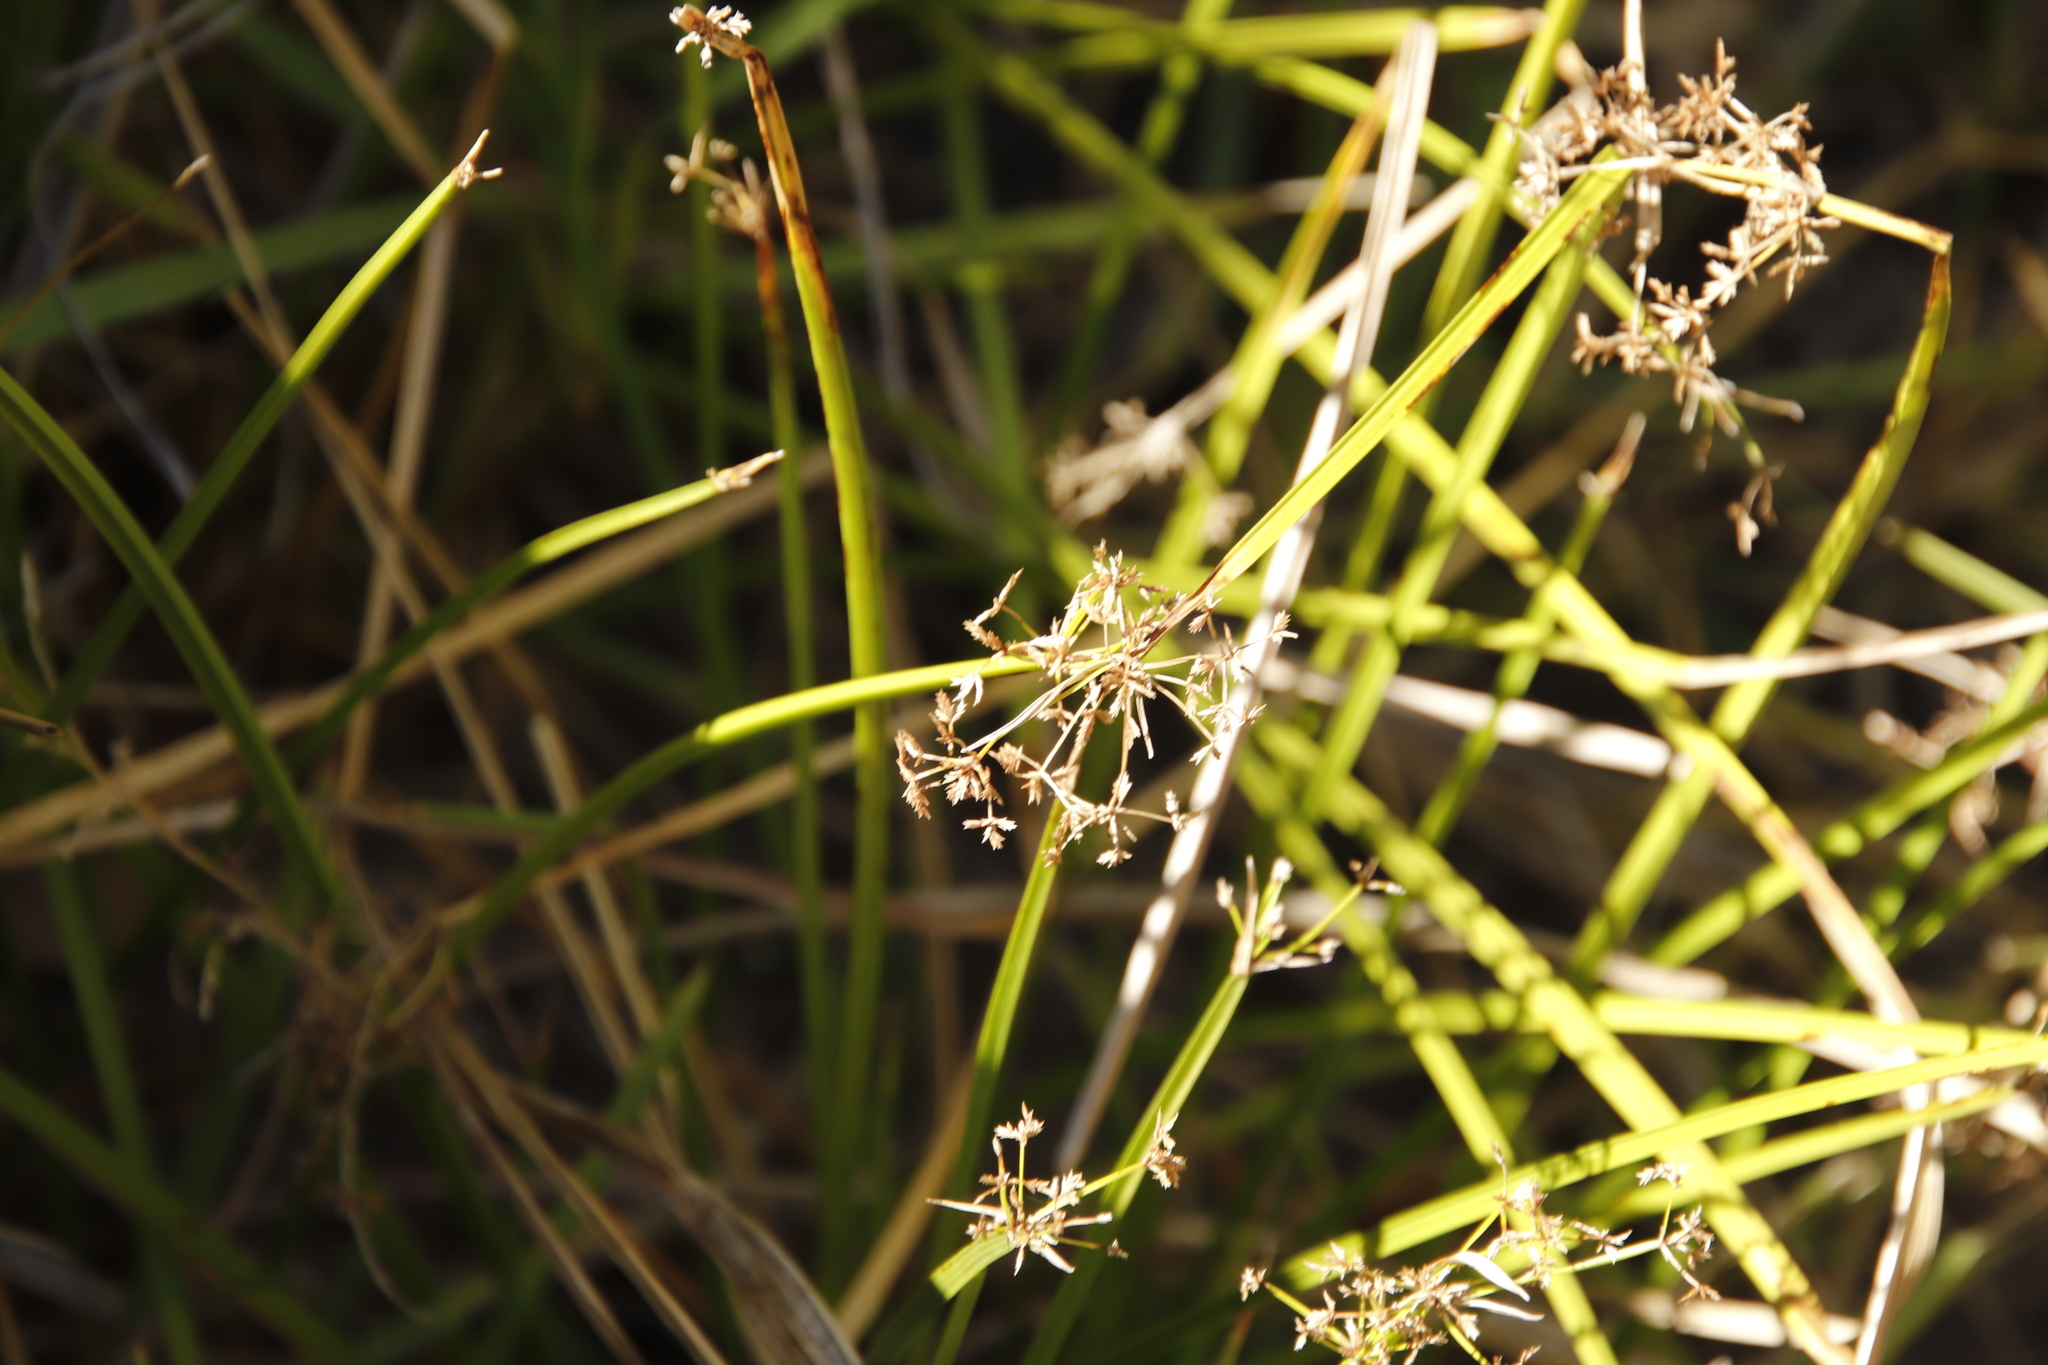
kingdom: Plantae
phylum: Tracheophyta
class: Liliopsida
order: Poales
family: Cyperaceae
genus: Cyperus
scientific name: Cyperus denudatus
